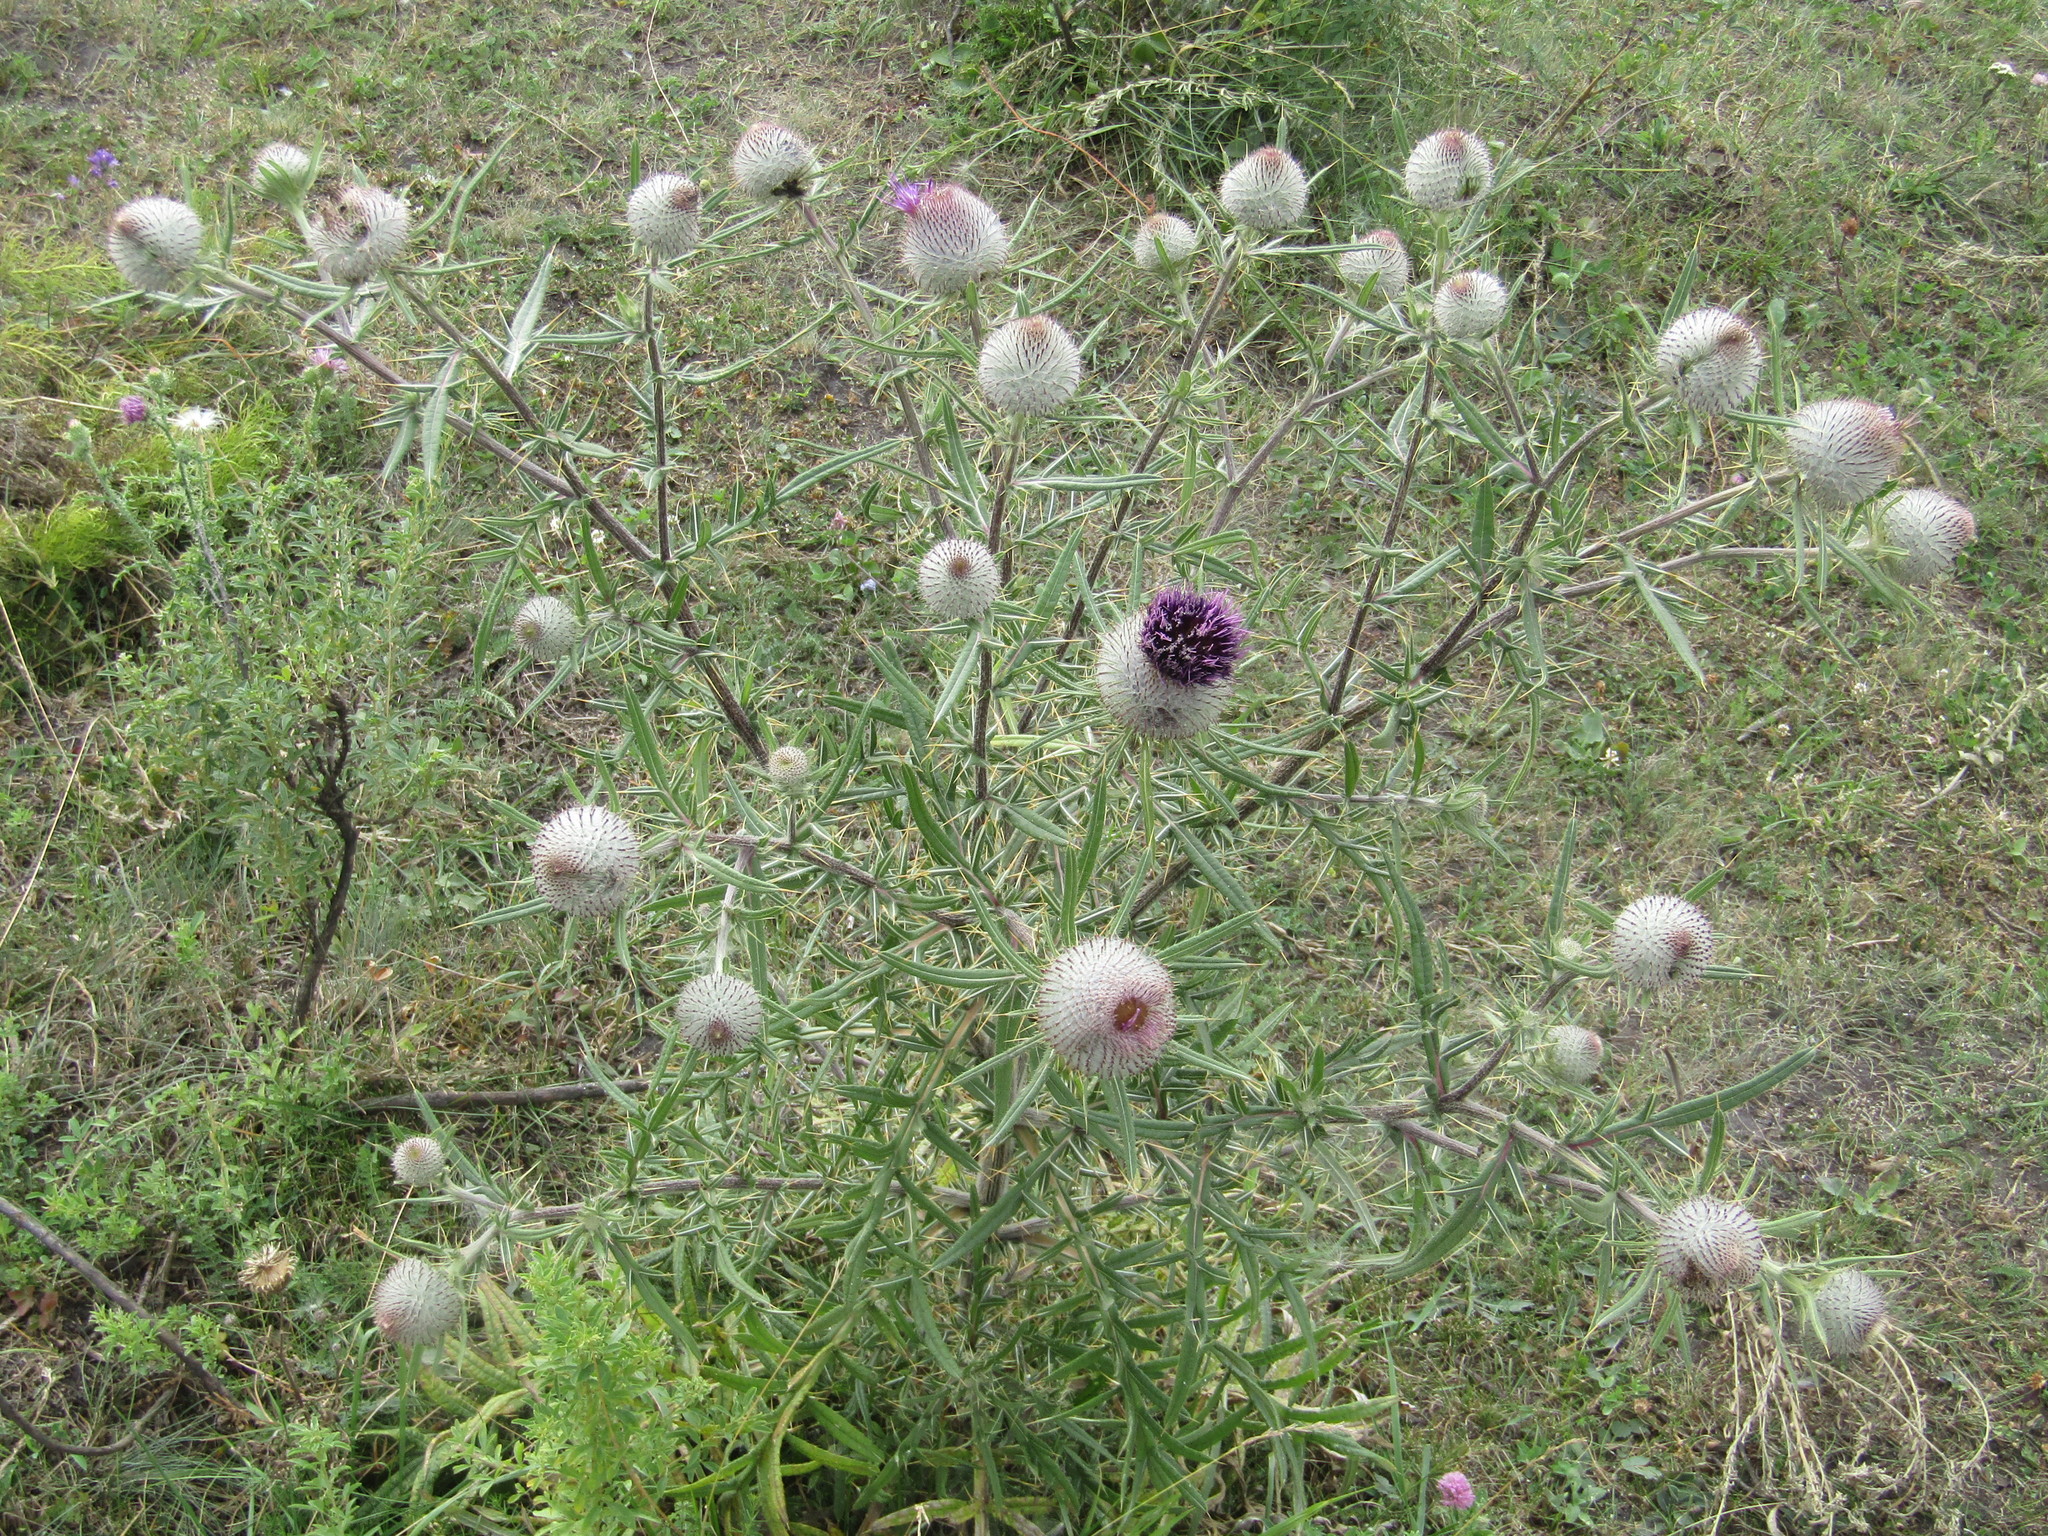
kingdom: Plantae
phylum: Tracheophyta
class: Magnoliopsida
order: Asterales
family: Asteraceae
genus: Lophiolepis
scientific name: Lophiolepis decussata
